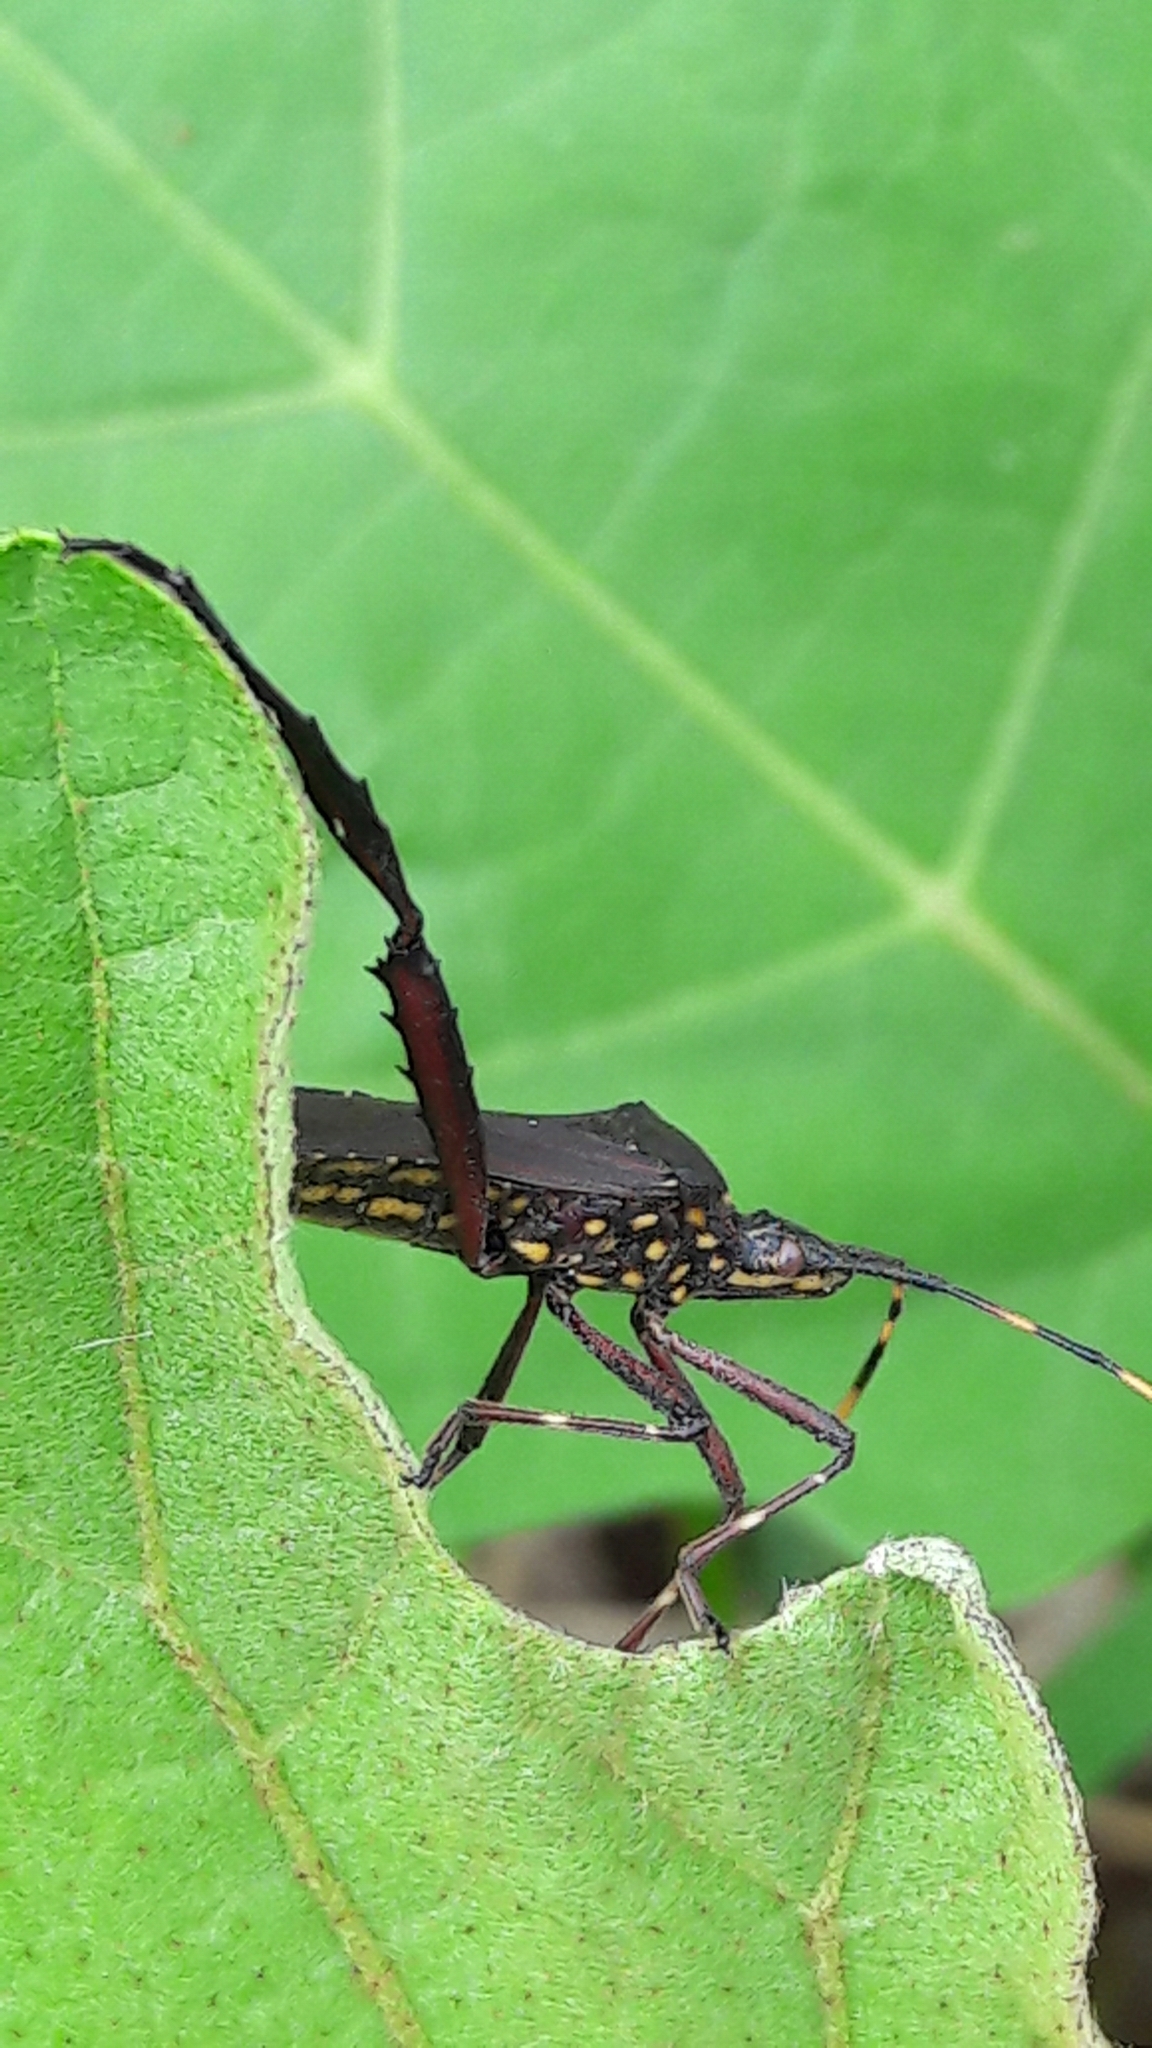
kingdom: Animalia
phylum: Arthropoda
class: Insecta
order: Hemiptera
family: Coreidae
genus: Leptoglossus
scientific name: Leptoglossus gonagra
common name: Citron bug
